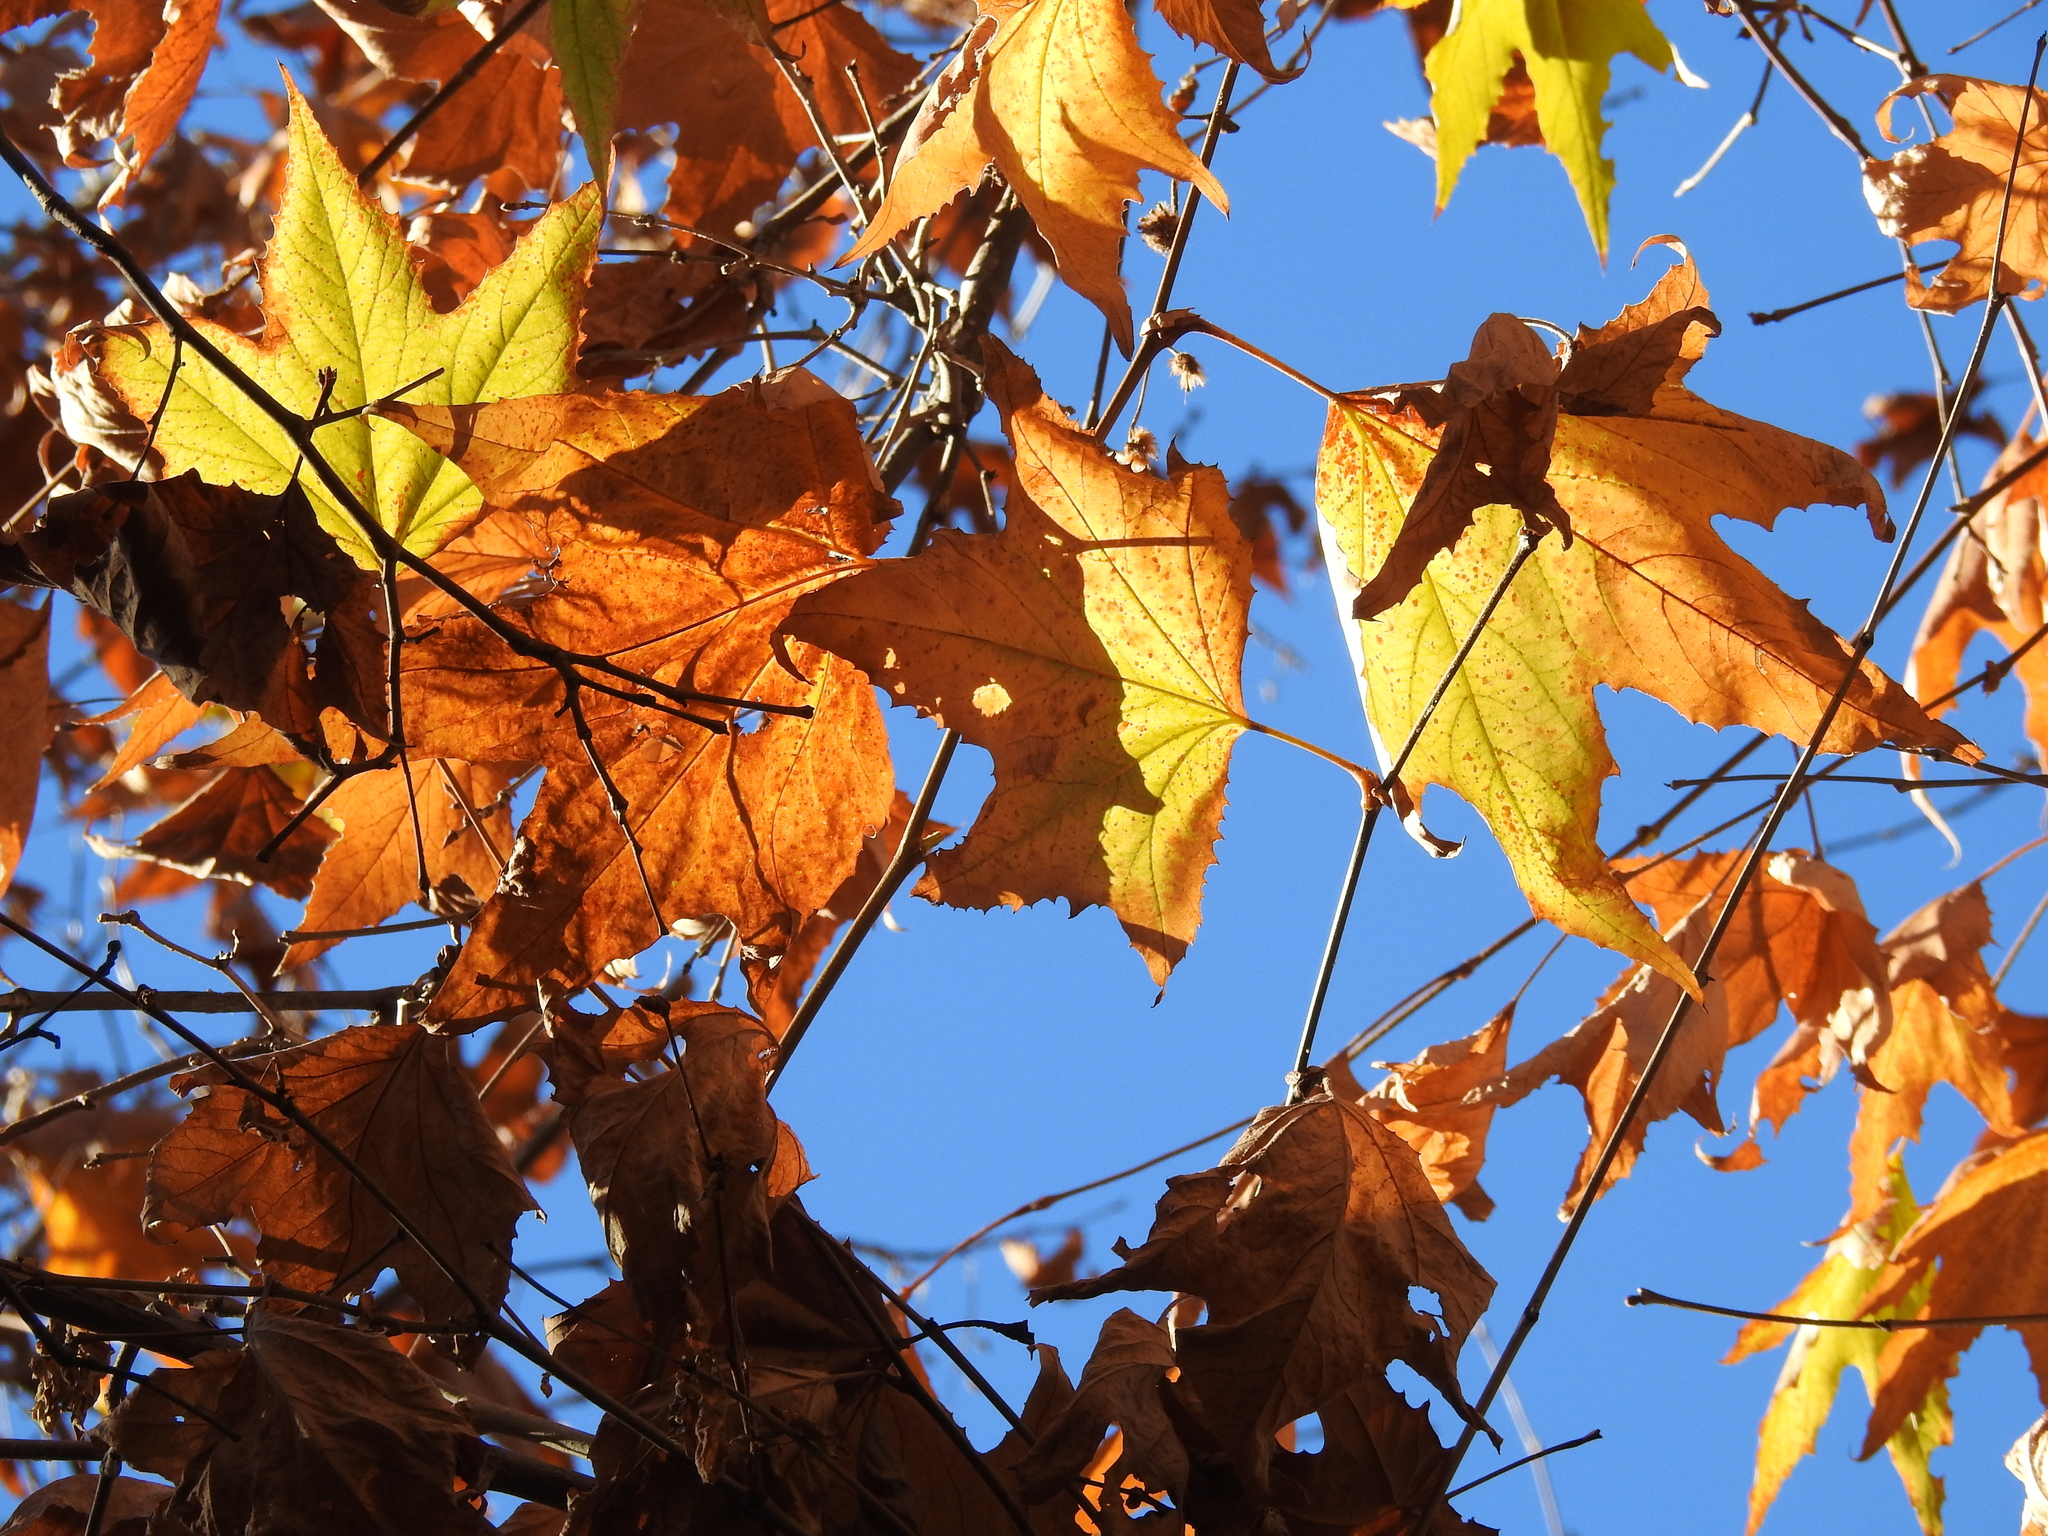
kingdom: Plantae
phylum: Tracheophyta
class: Magnoliopsida
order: Proteales
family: Platanaceae
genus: Platanus
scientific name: Platanus wrightii
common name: Arizona sycamore
